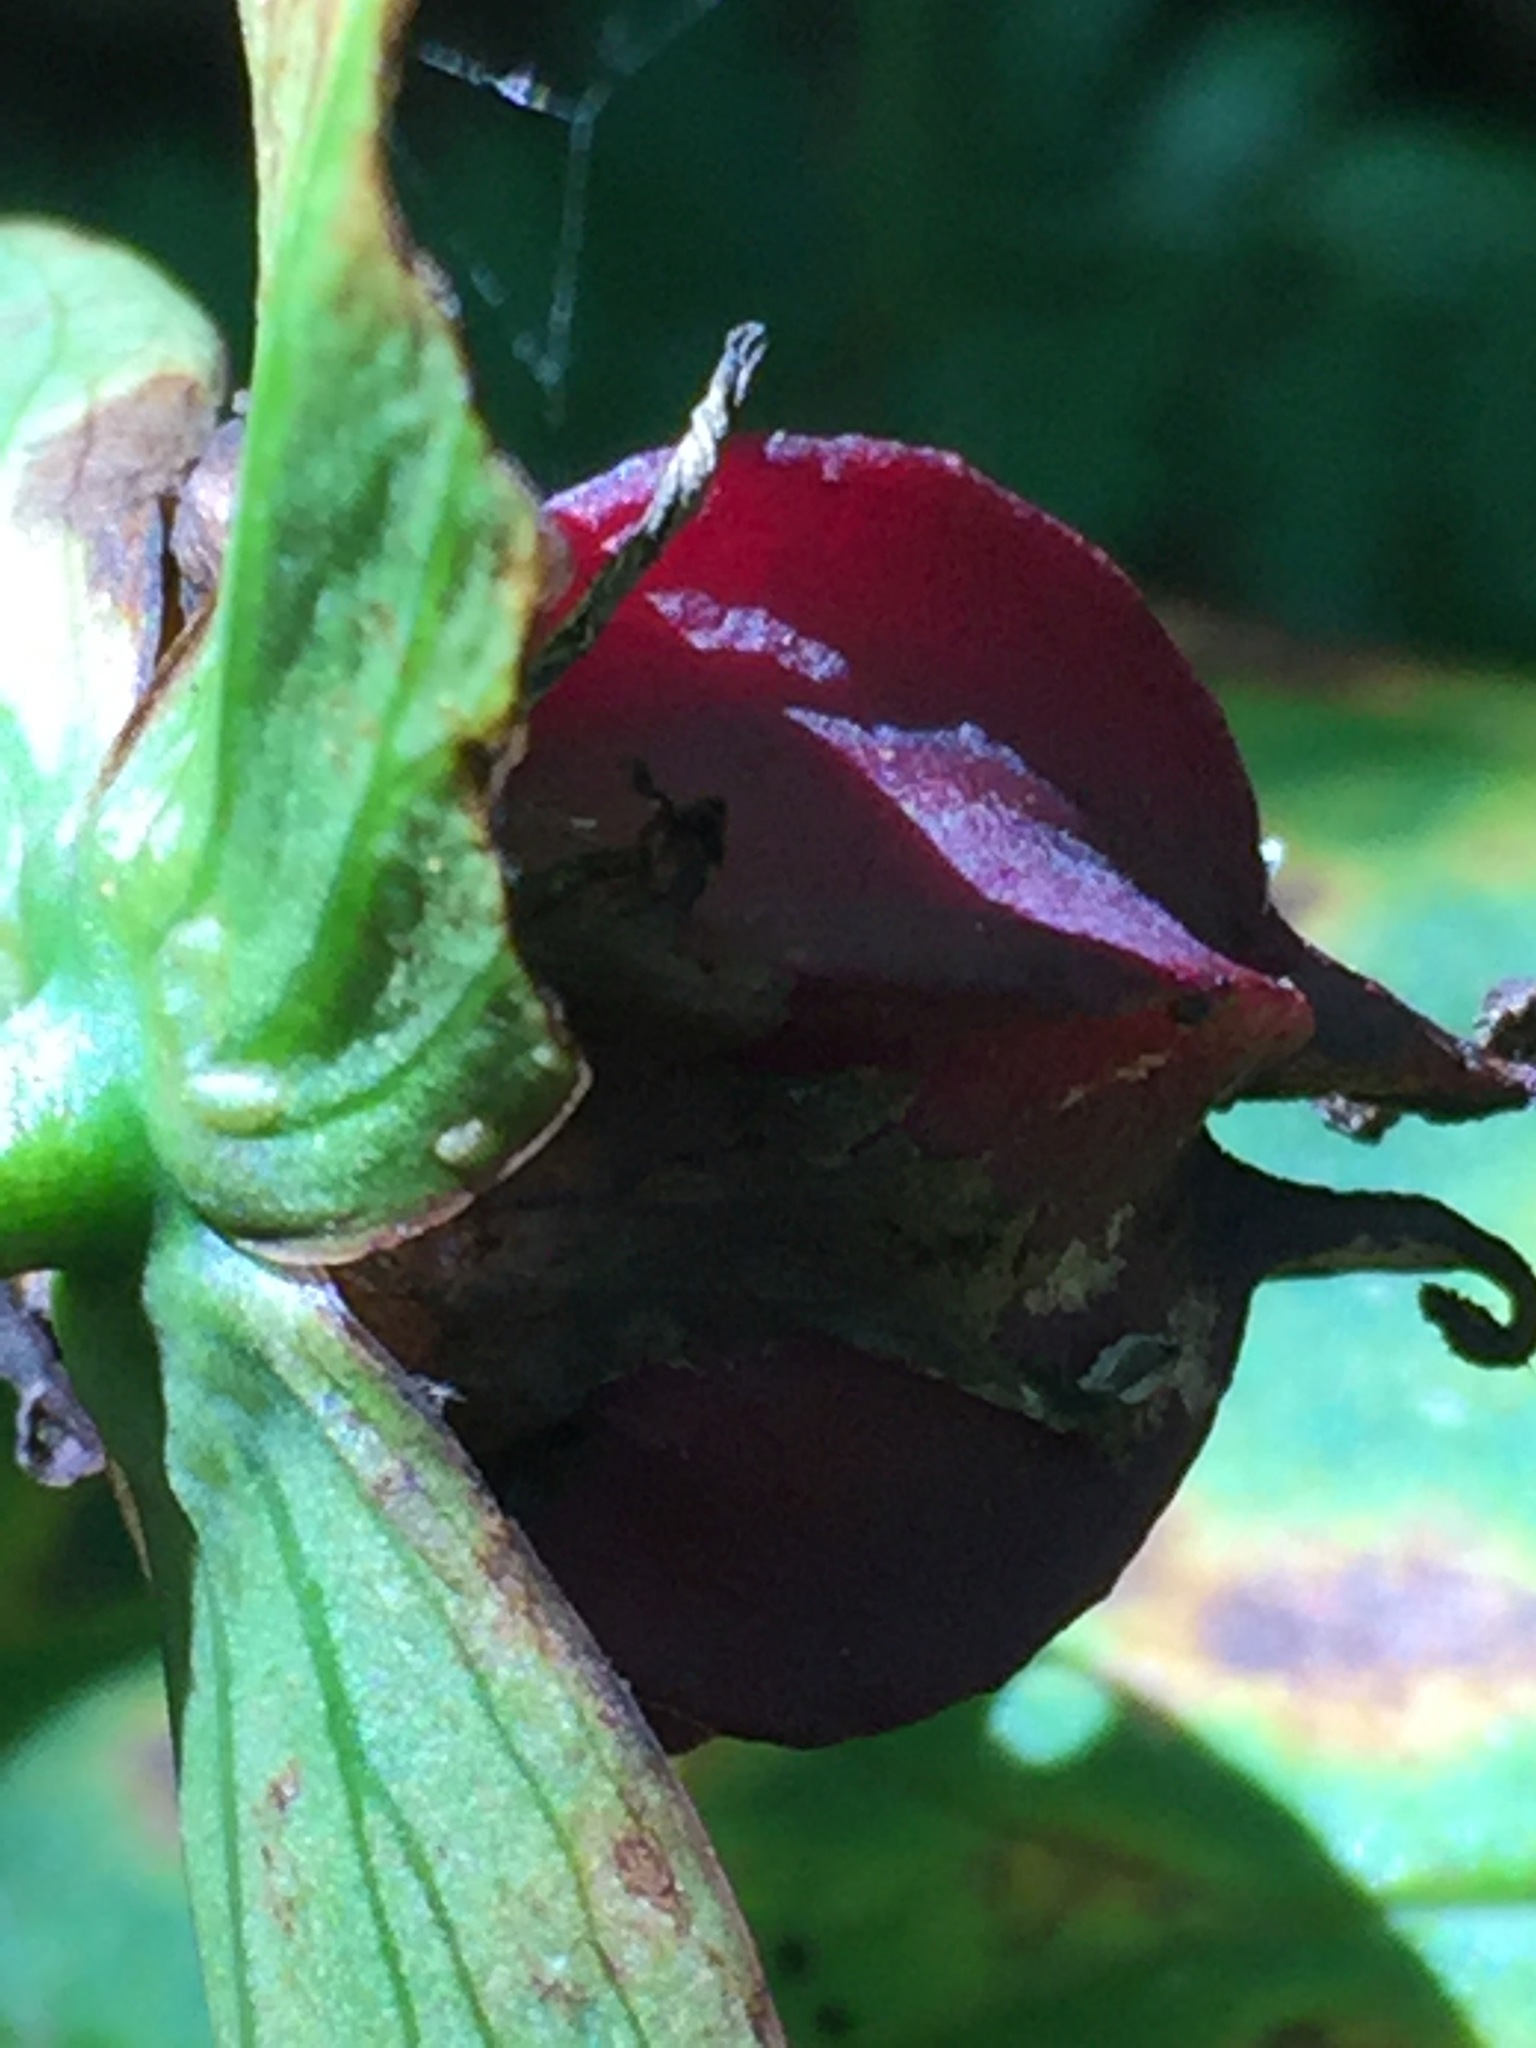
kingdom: Plantae
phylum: Tracheophyta
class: Liliopsida
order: Liliales
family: Melanthiaceae
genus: Trillium
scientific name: Trillium erectum
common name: Purple trillium
